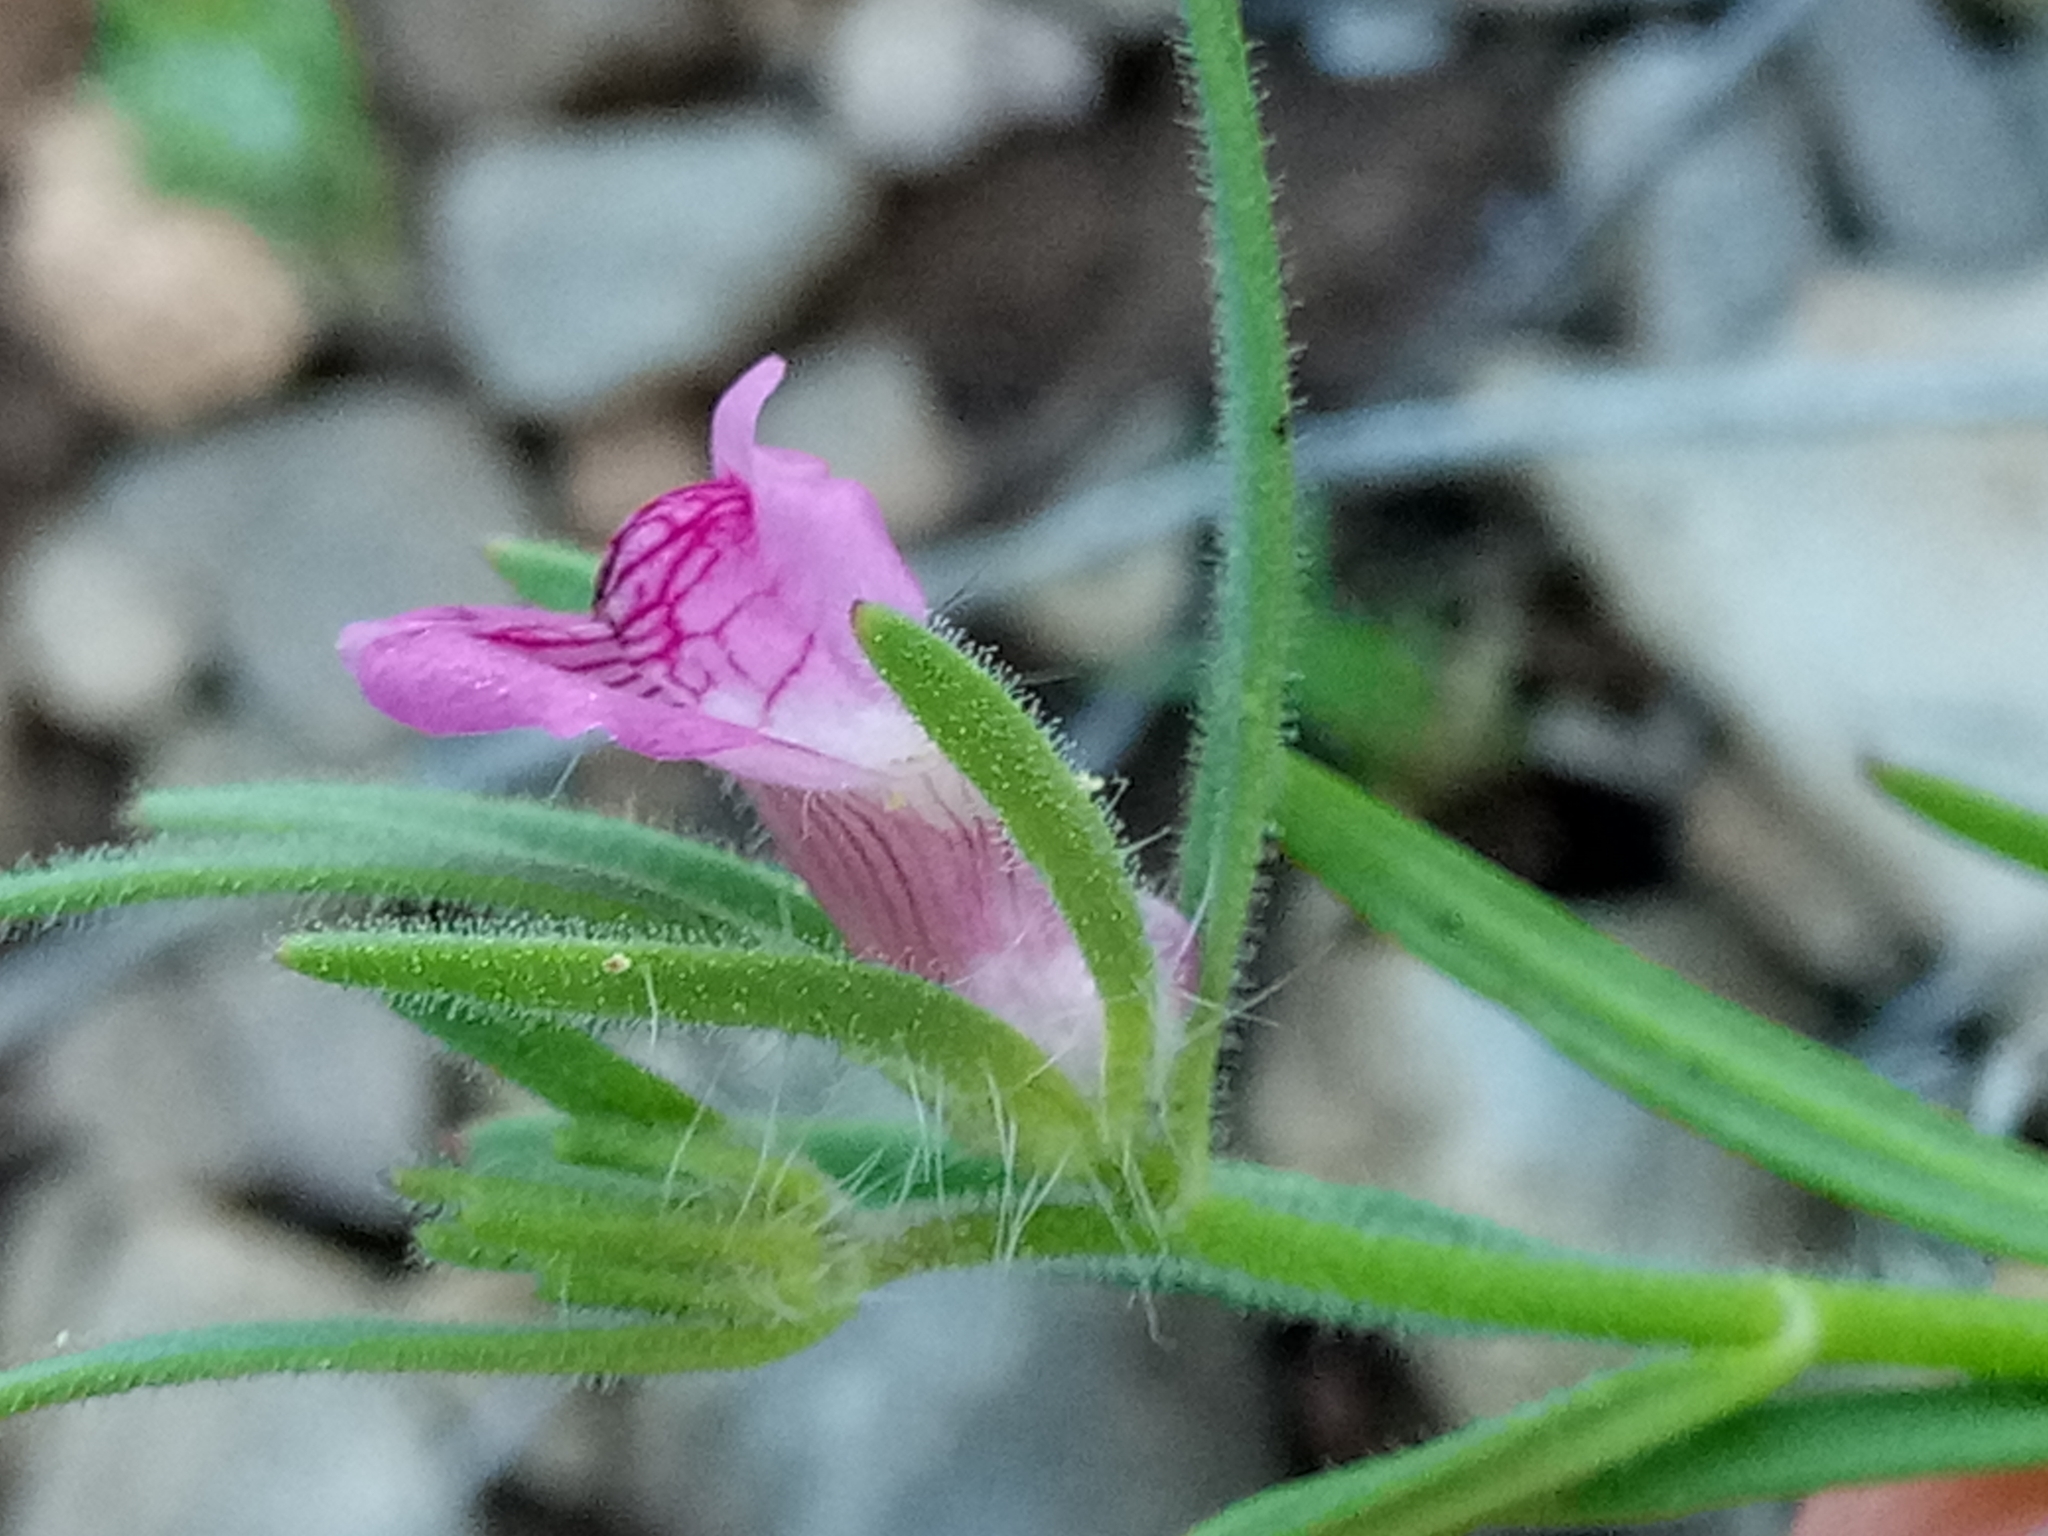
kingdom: Plantae
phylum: Tracheophyta
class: Magnoliopsida
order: Lamiales
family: Plantaginaceae
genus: Misopates
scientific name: Misopates orontium
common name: Weasel's-snout
